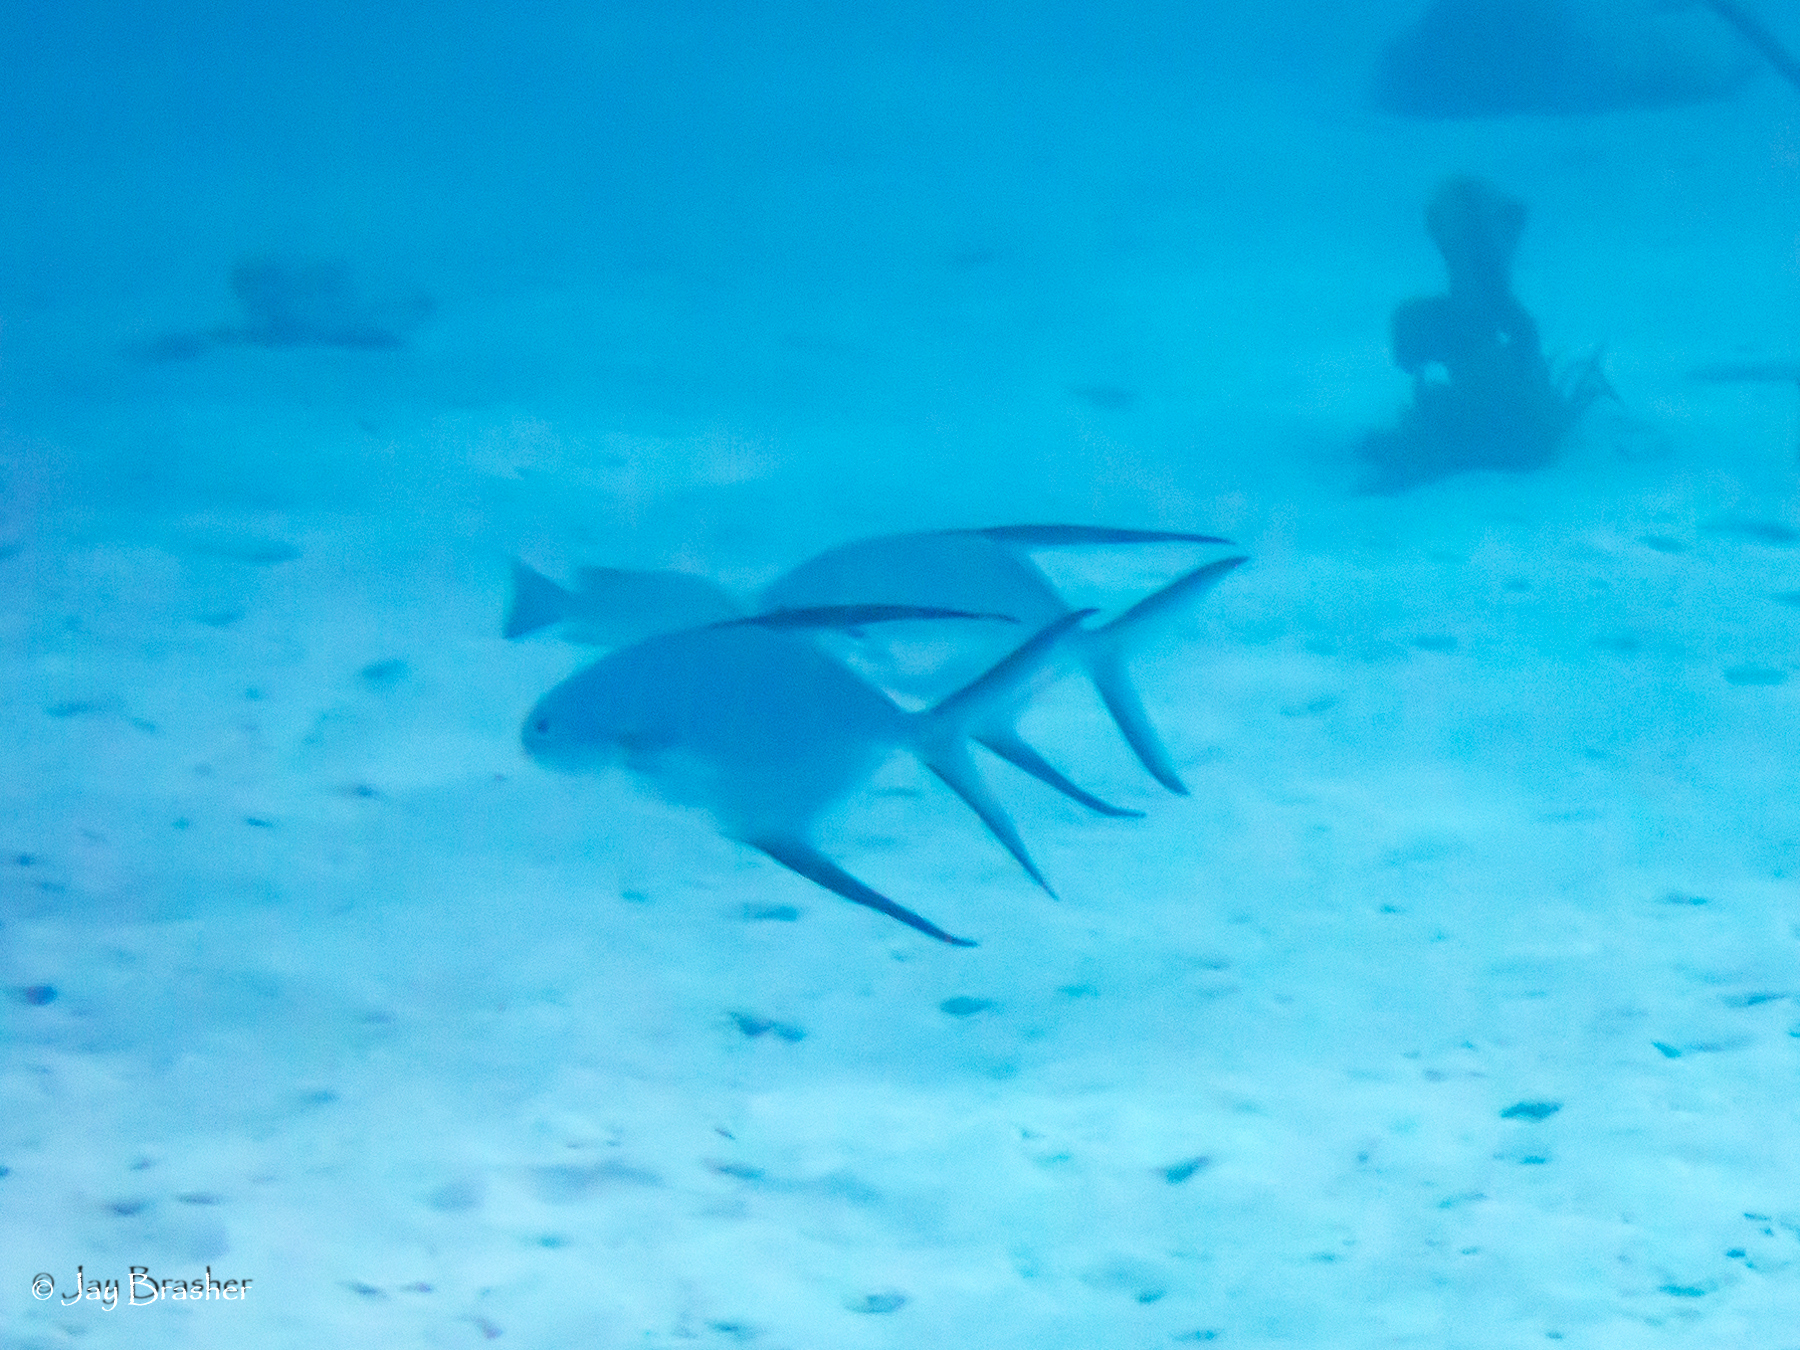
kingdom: Animalia
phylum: Chordata
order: Perciformes
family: Carangidae
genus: Trachinotus
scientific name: Trachinotus goodei
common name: Palometa
